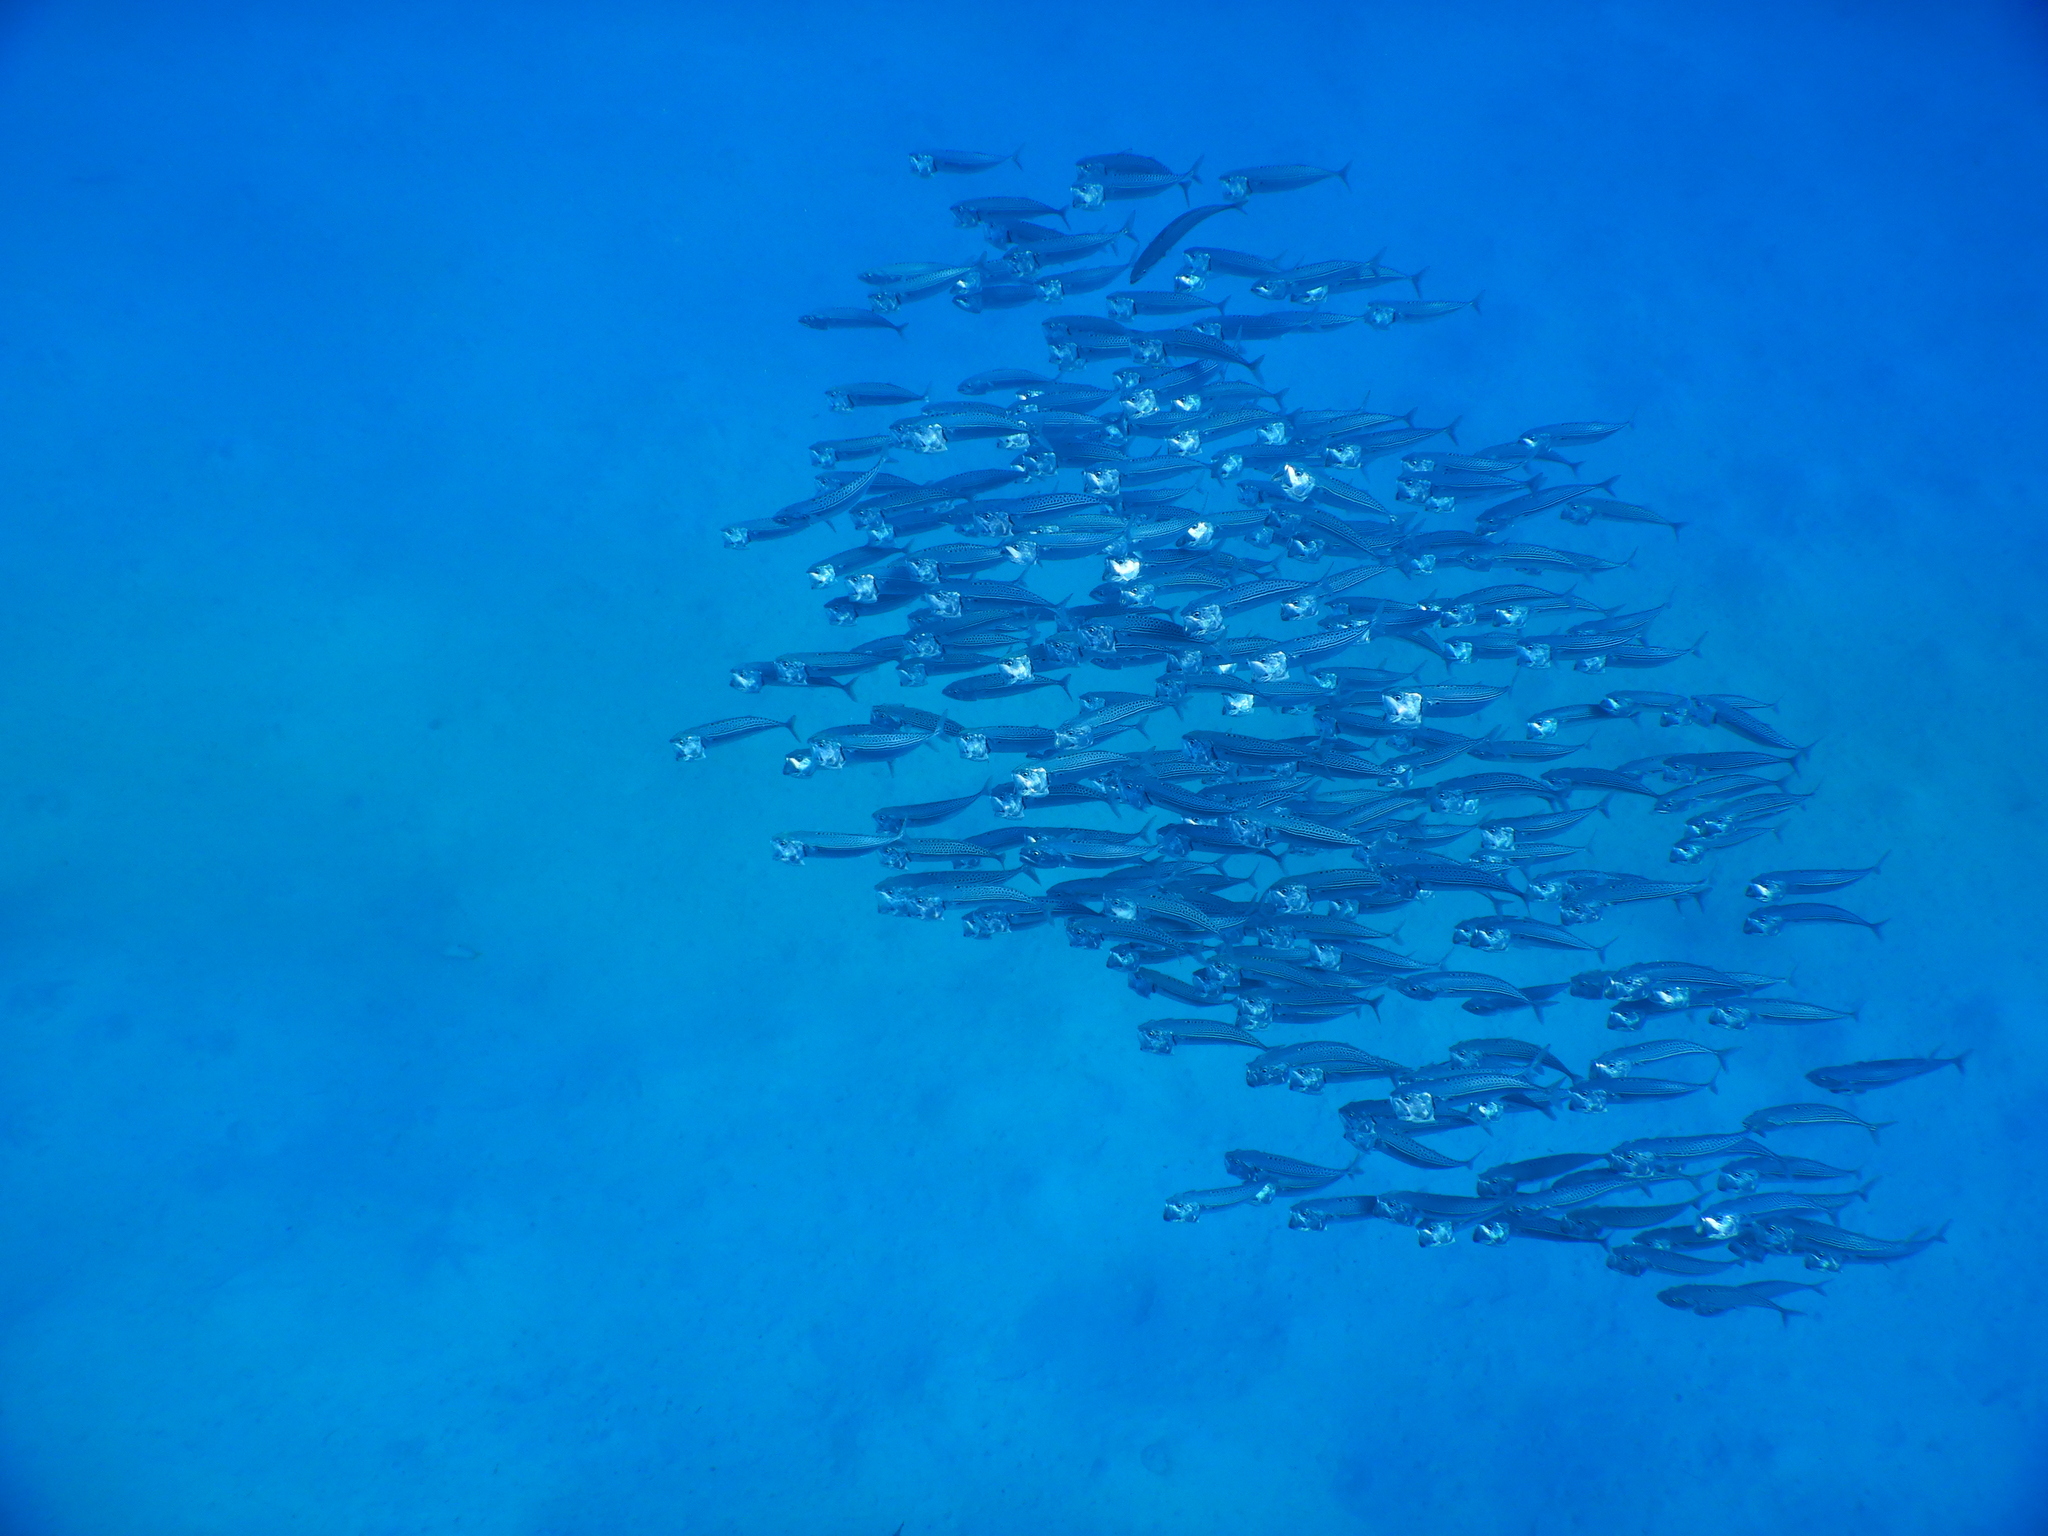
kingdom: Animalia
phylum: Chordata
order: Perciformes
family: Scombridae
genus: Rastrelliger
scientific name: Rastrelliger kanagurta
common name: Indian mackerel
